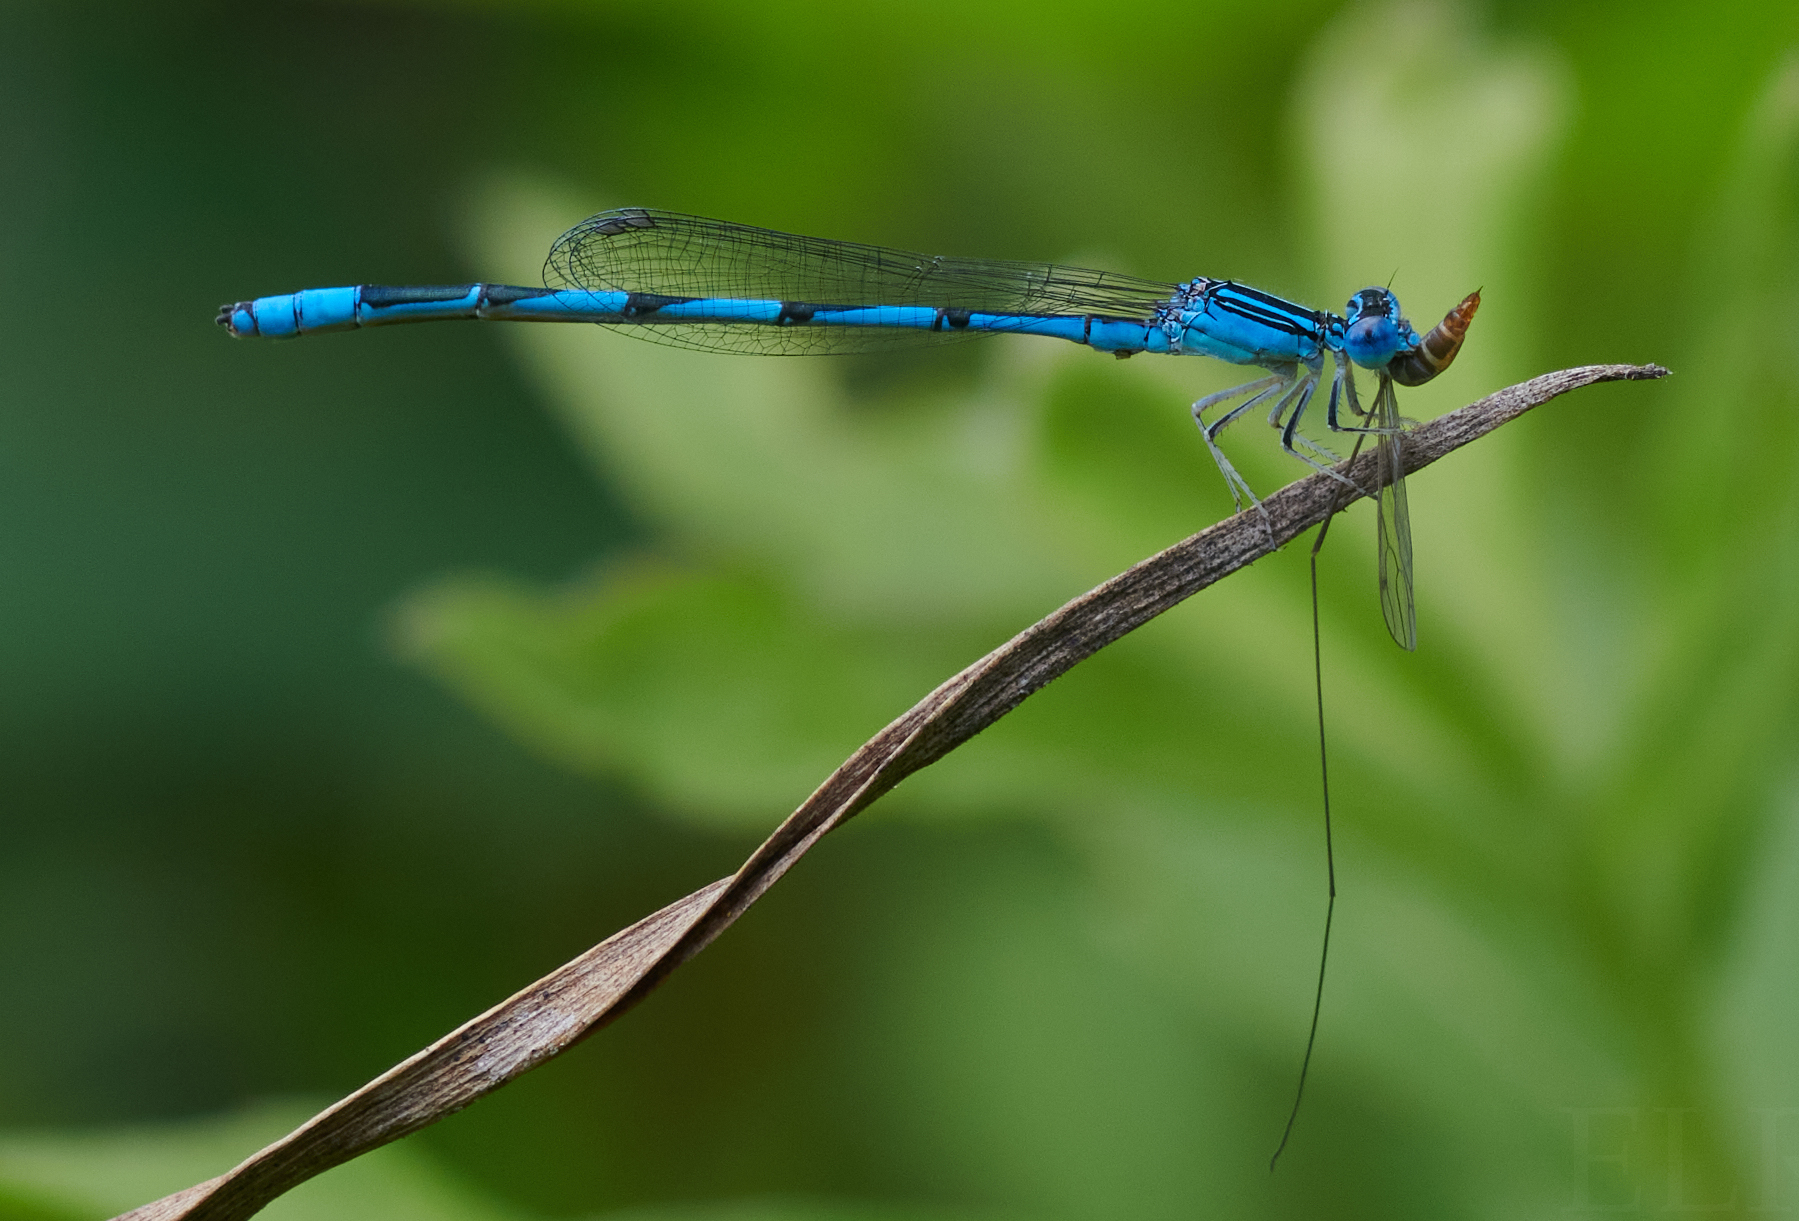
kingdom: Animalia
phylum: Arthropoda
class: Insecta
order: Odonata
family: Coenagrionidae
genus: Enallagma
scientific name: Enallagma basidens
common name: Double-striped bluet
